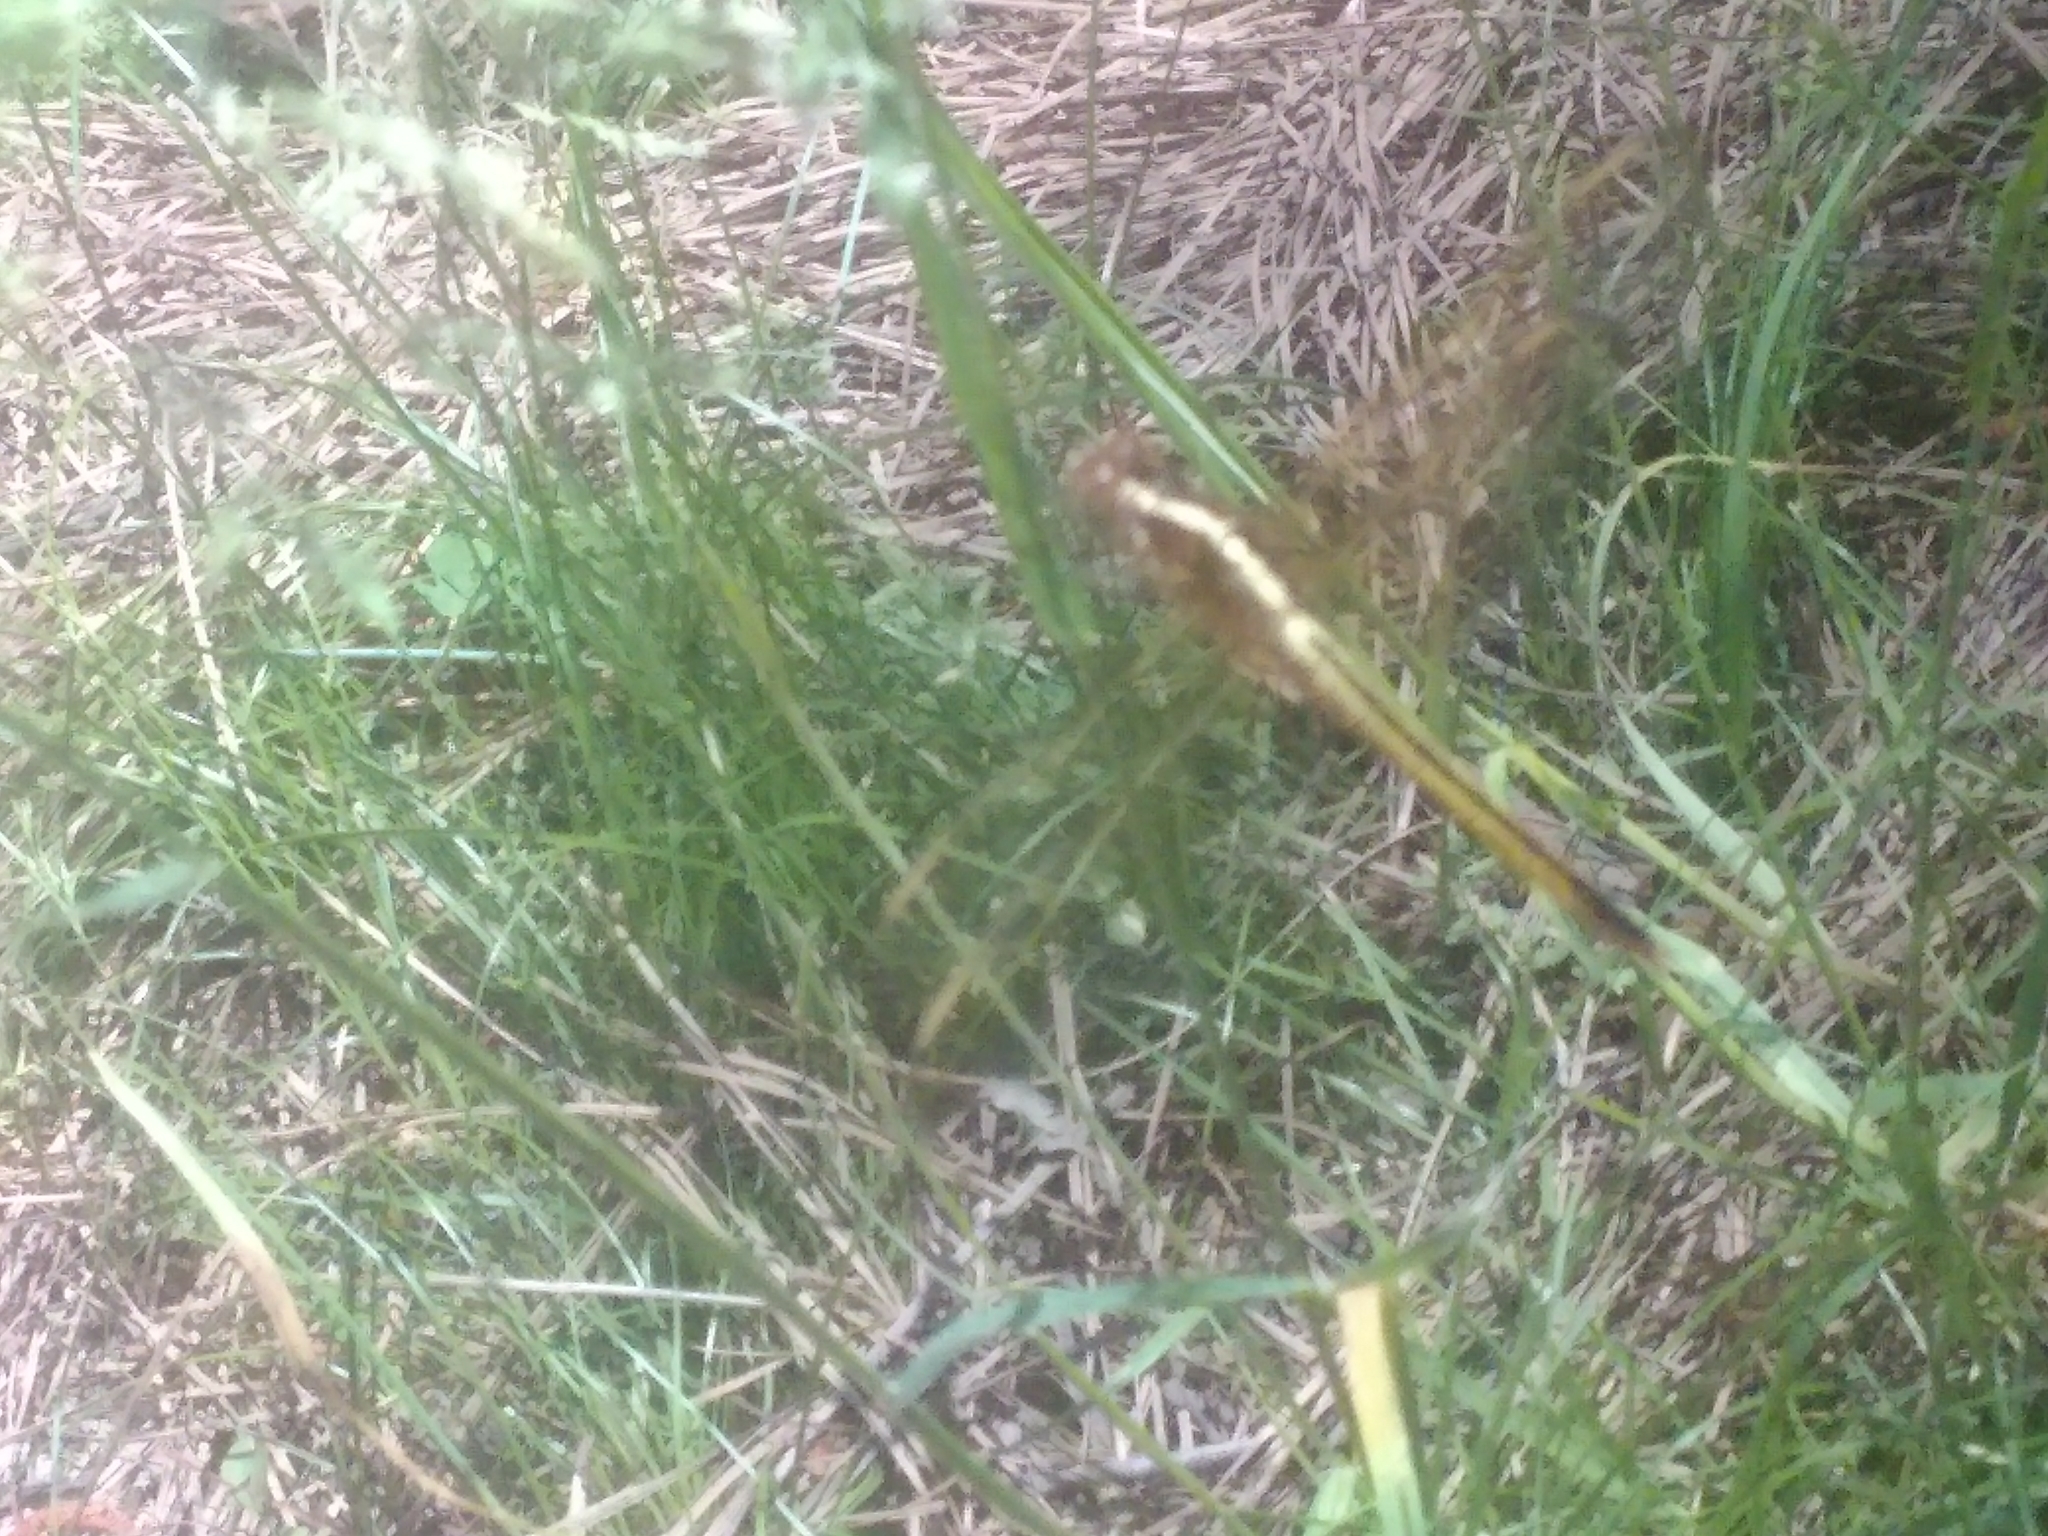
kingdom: Animalia
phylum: Arthropoda
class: Insecta
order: Odonata
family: Libellulidae
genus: Libellula
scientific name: Libellula needhami
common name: Needham's skimmer
